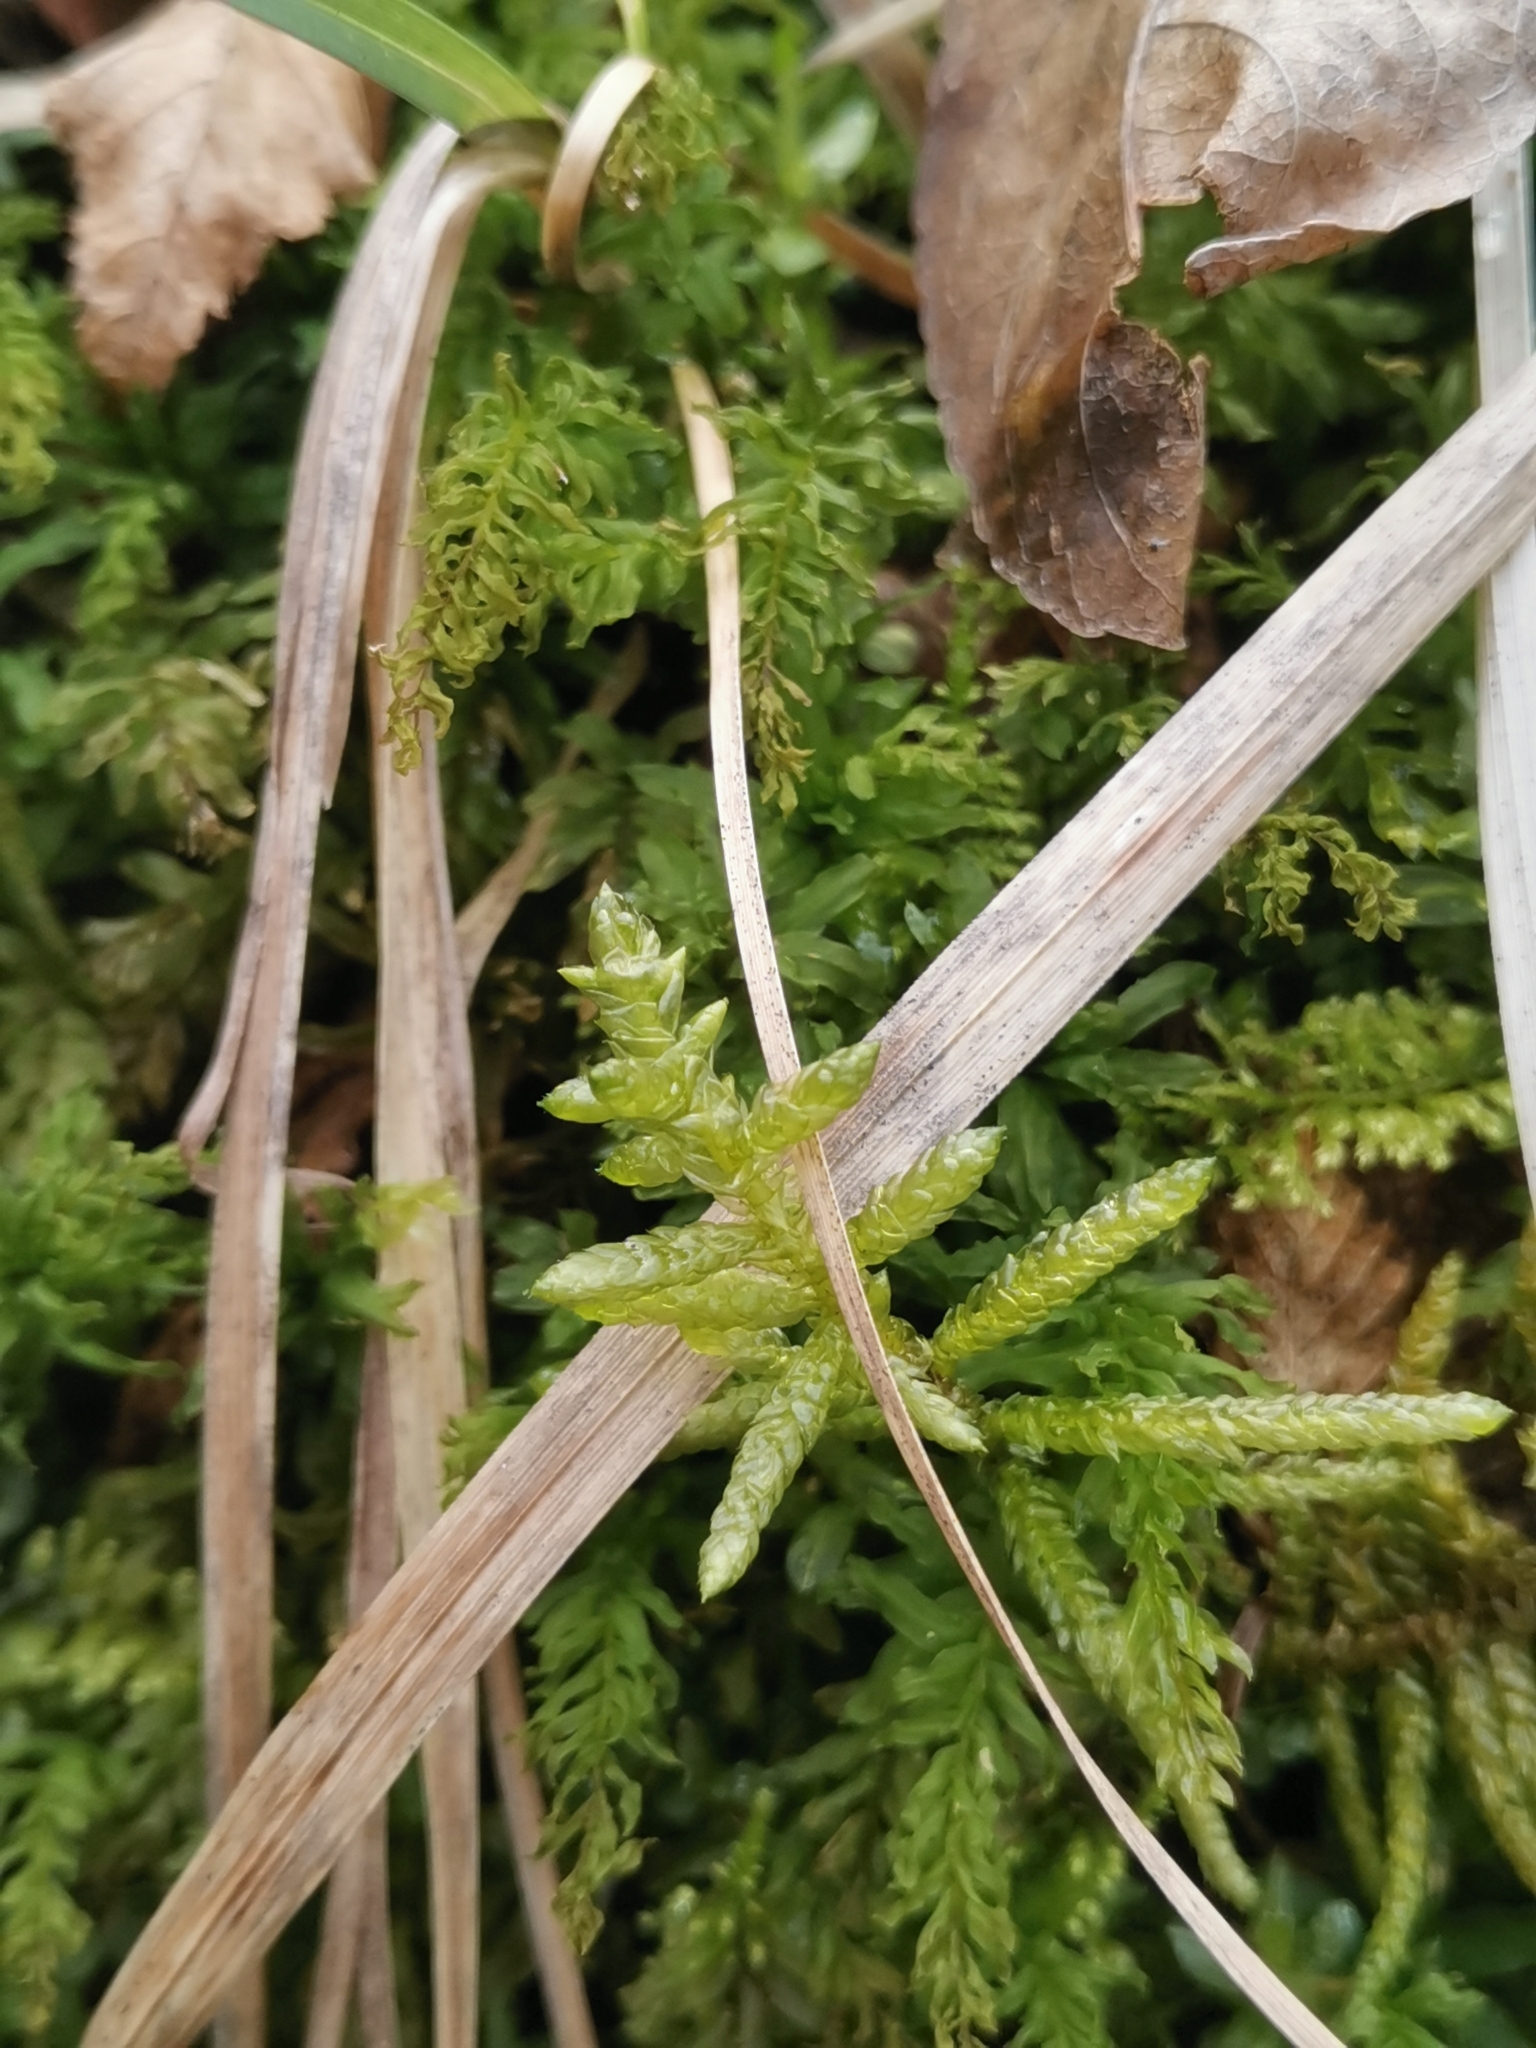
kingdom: Plantae
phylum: Bryophyta
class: Bryopsida
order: Hypnales
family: Brachytheciaceae
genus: Pseudoscleropodium
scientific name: Pseudoscleropodium purum
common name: Neat feather-moss
